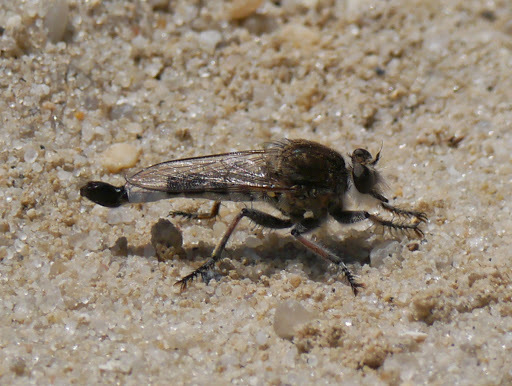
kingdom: Animalia
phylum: Arthropoda
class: Insecta
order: Diptera
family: Asilidae
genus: Efferia
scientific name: Efferia albibarbis
